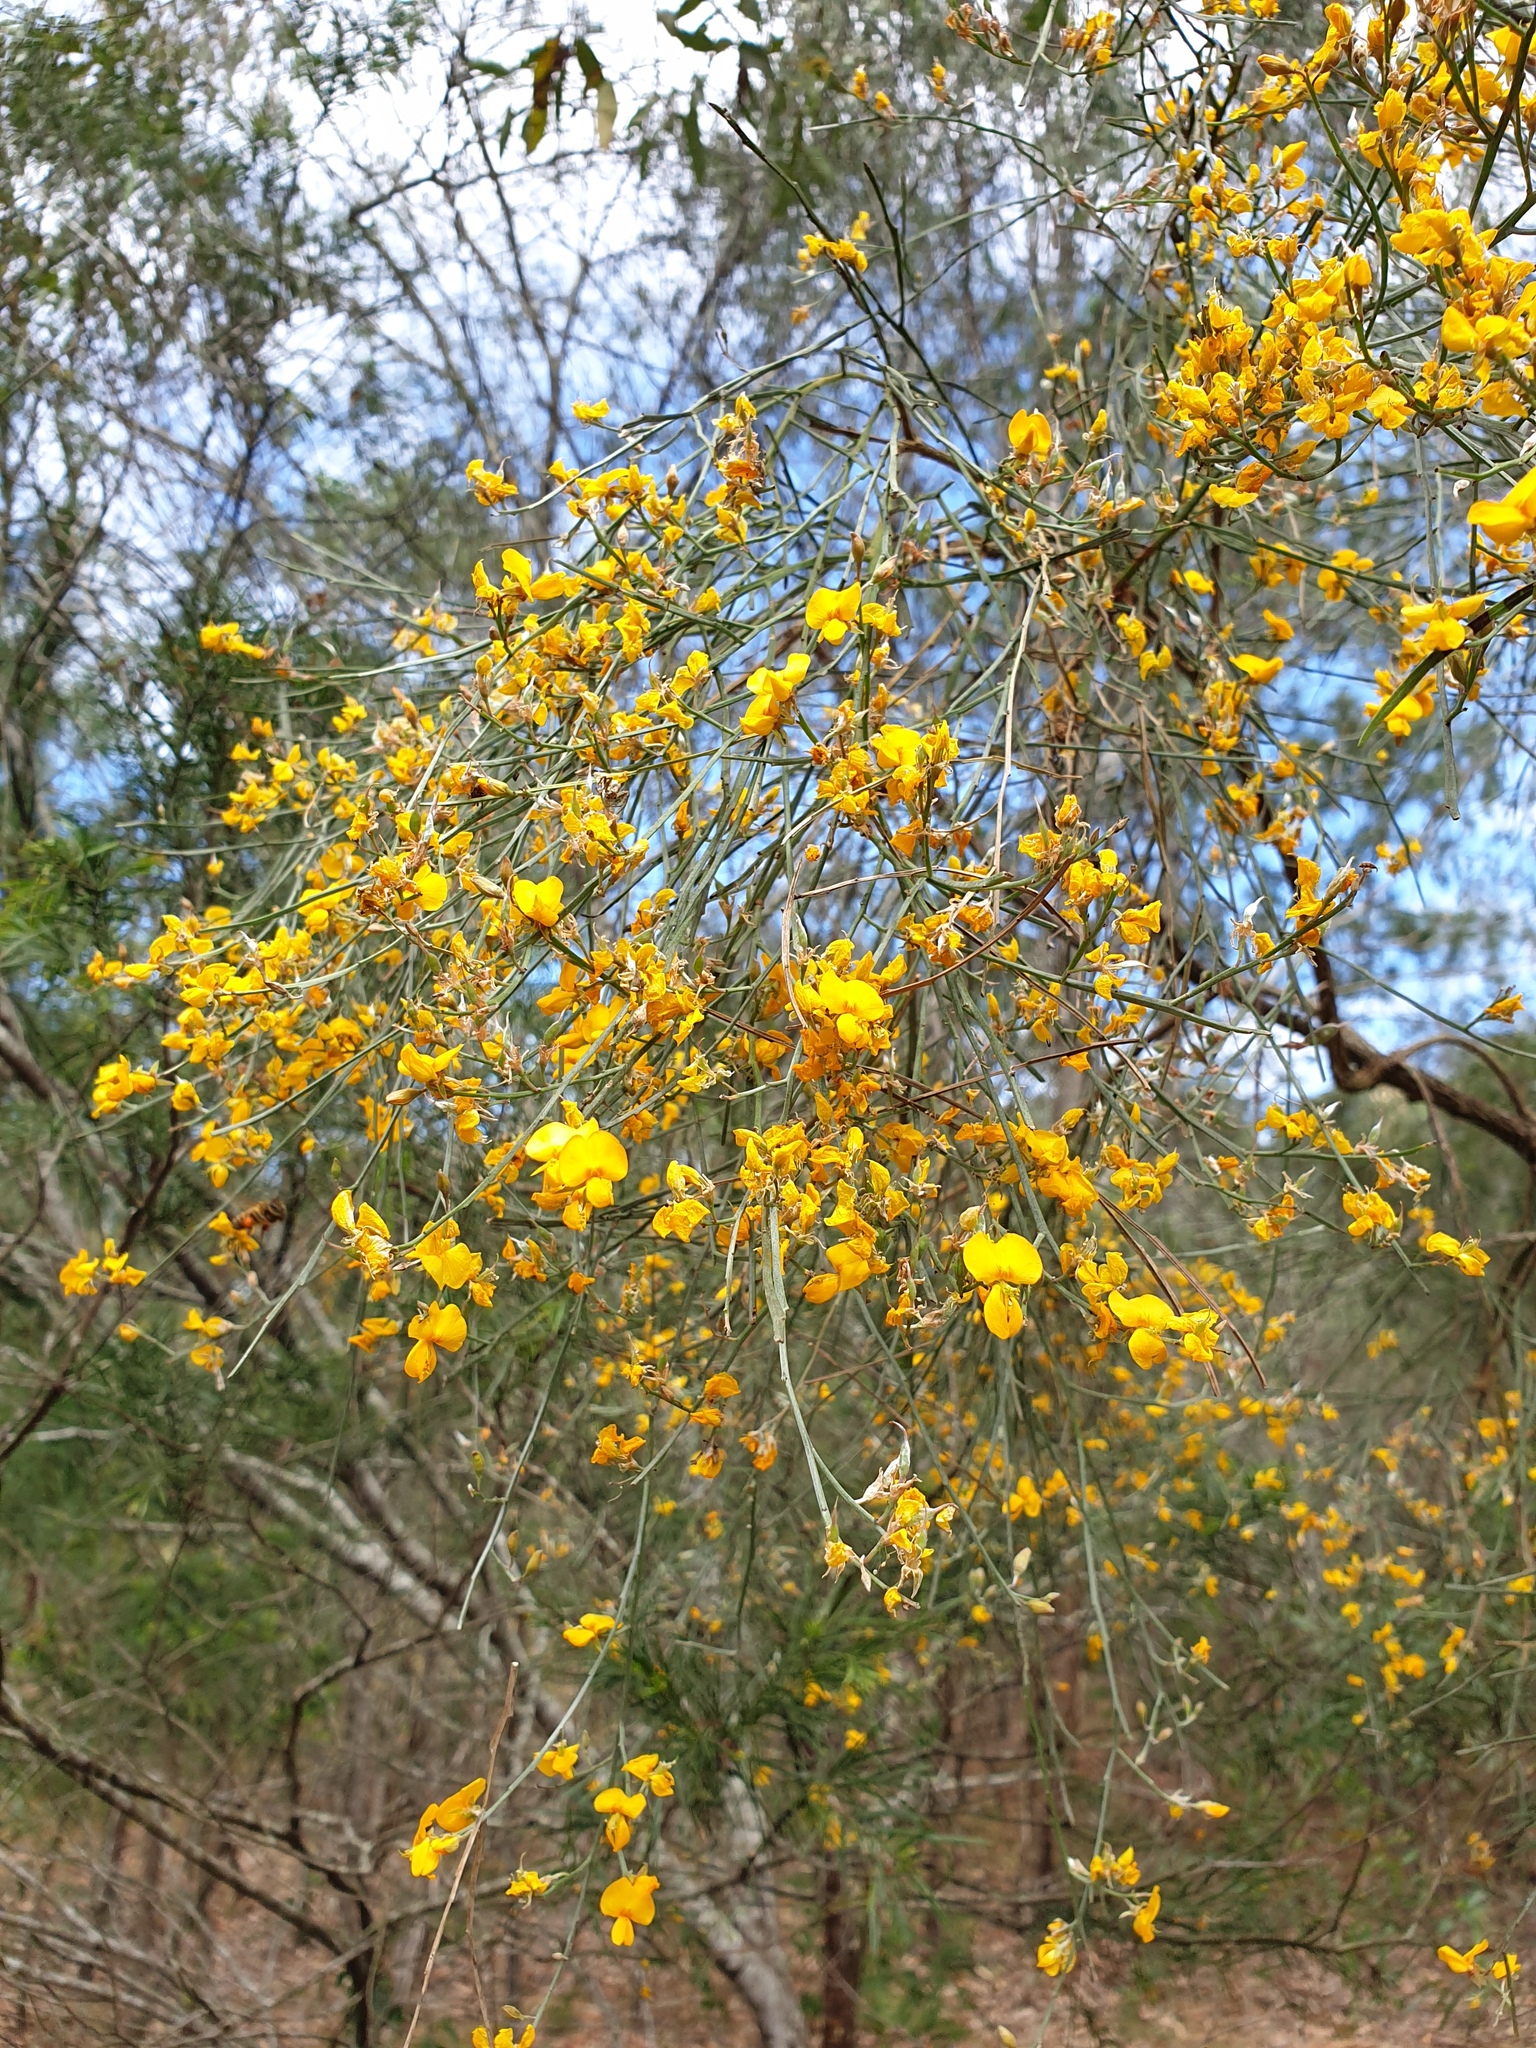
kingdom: Plantae
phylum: Tracheophyta
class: Magnoliopsida
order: Fabales
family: Fabaceae
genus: Jacksonia
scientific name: Jacksonia scoparia
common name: Dogwood
